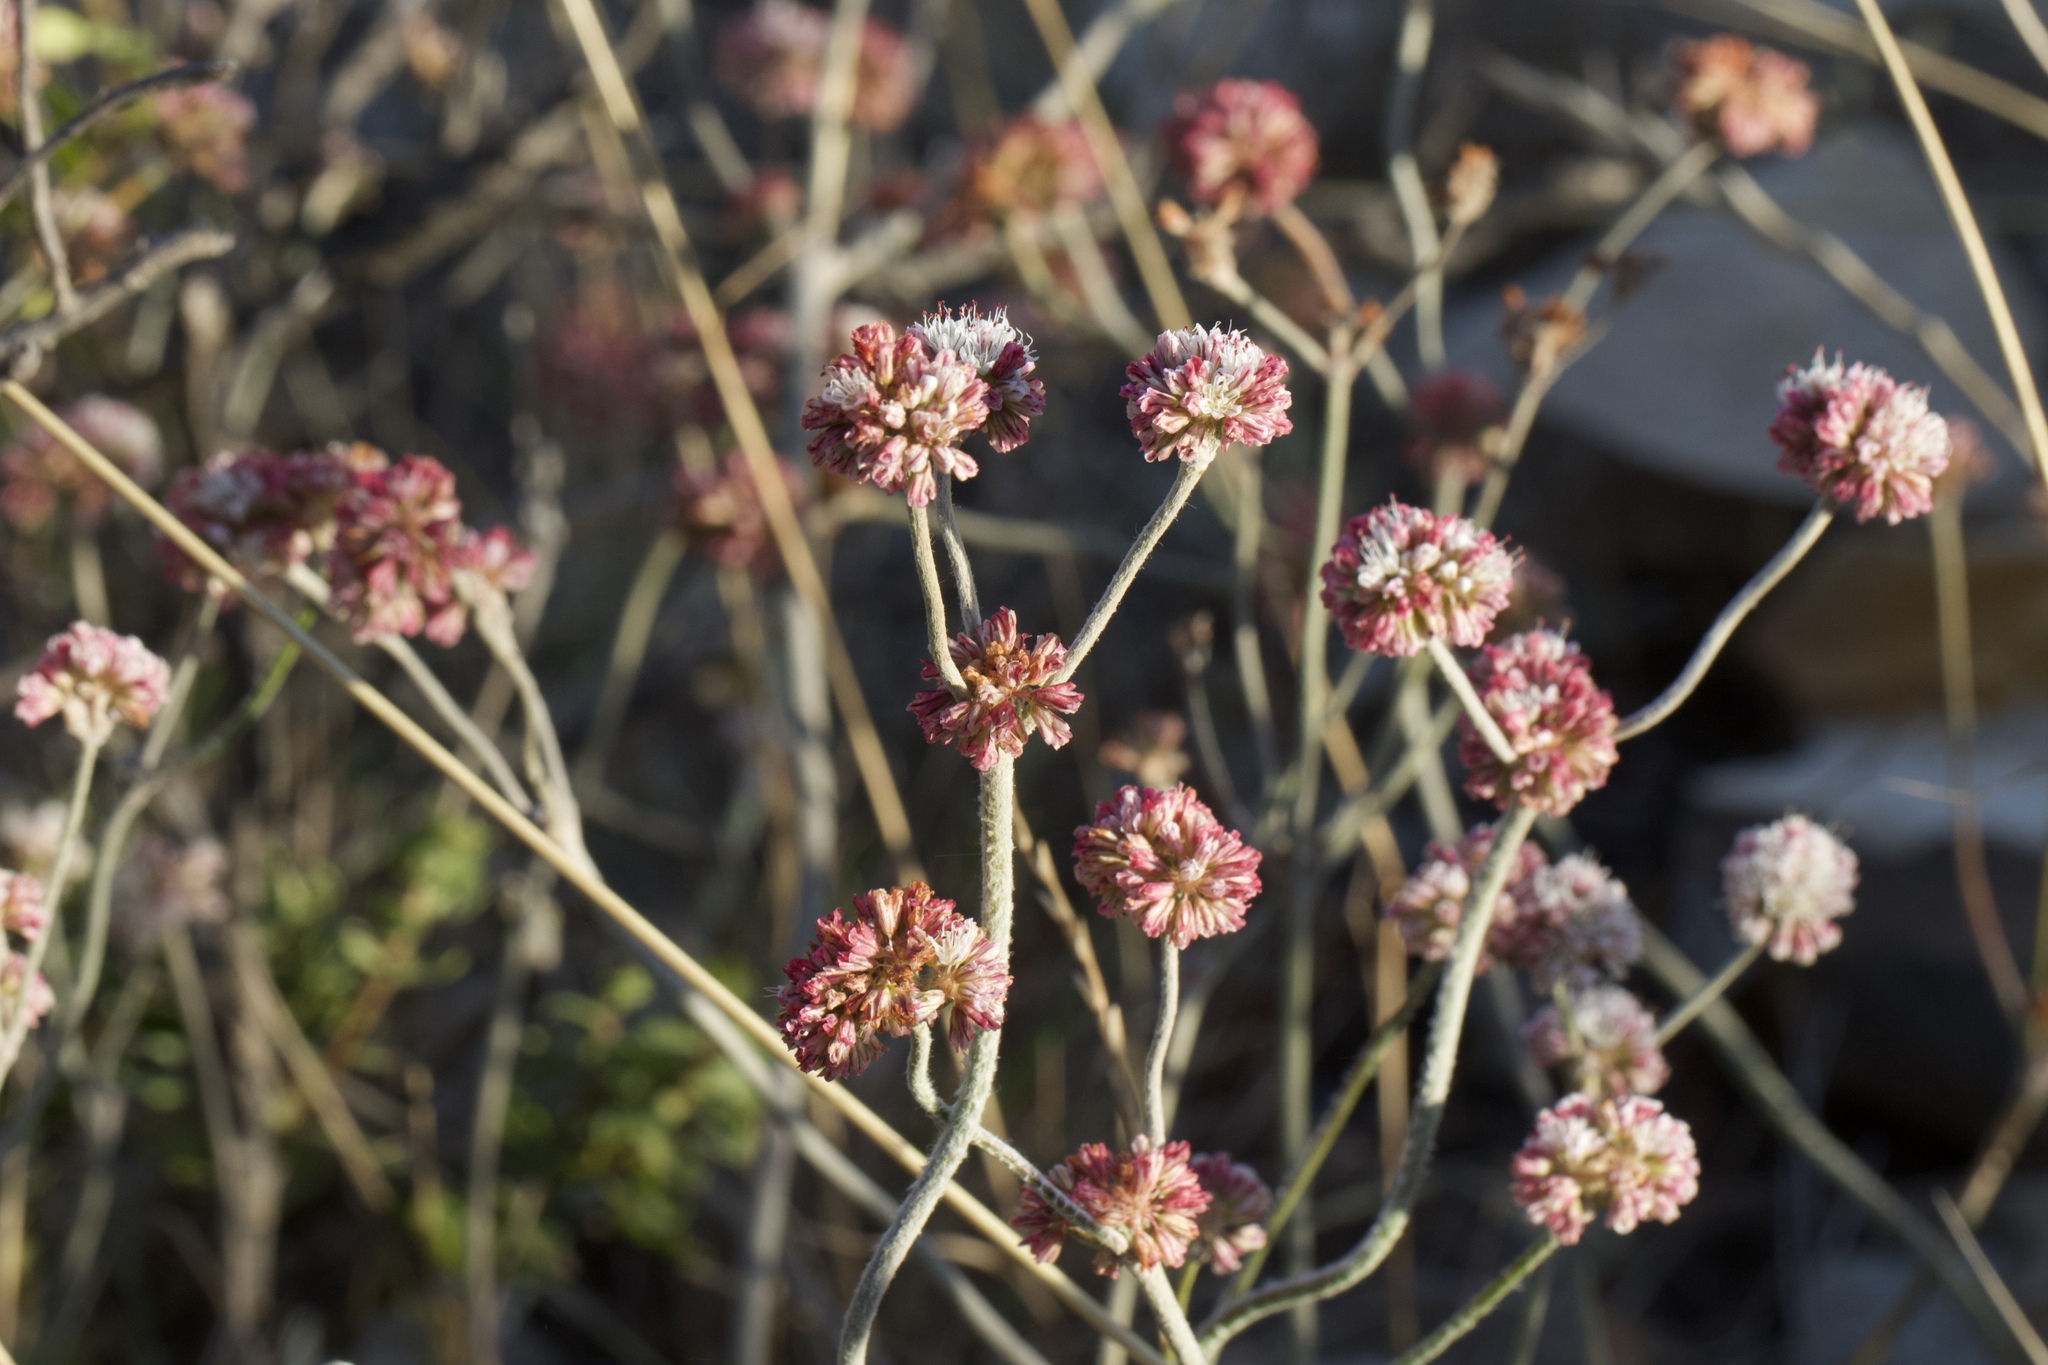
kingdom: Plantae
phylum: Tracheophyta
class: Magnoliopsida
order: Caryophyllales
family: Polygonaceae
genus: Eriogonum
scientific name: Eriogonum latifolium
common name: Seaside wild buckwheat
